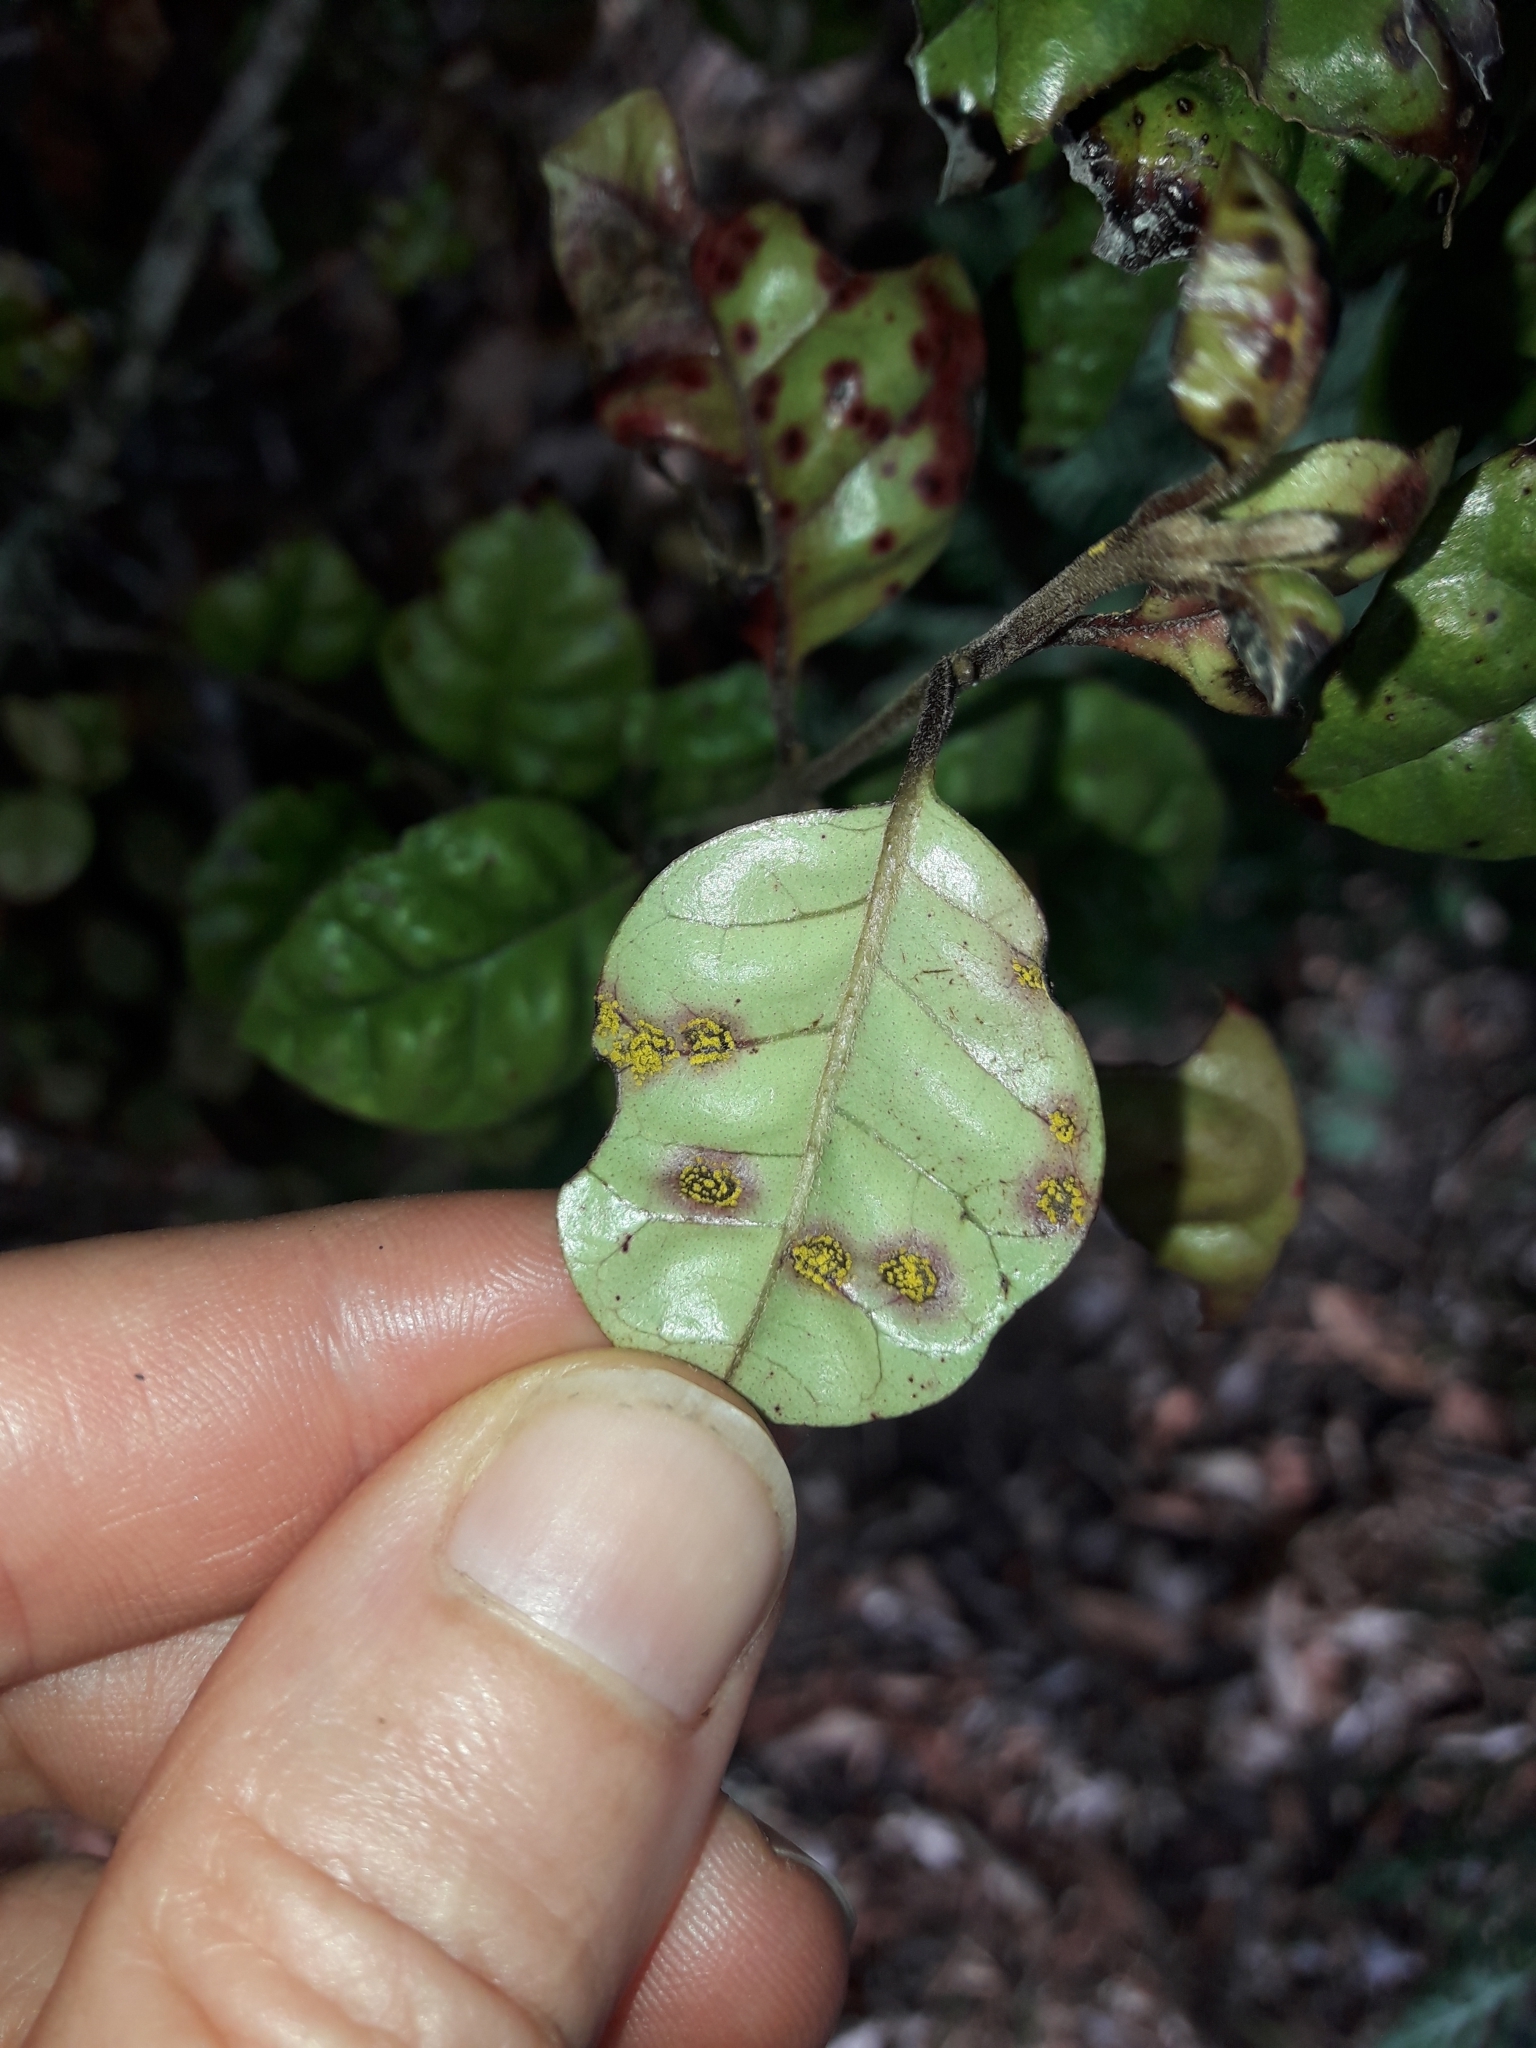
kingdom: Fungi
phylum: Basidiomycota
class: Pucciniomycetes
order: Pucciniales
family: Sphaerophragmiaceae
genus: Austropuccinia
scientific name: Austropuccinia psidii
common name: Myrtle rust
